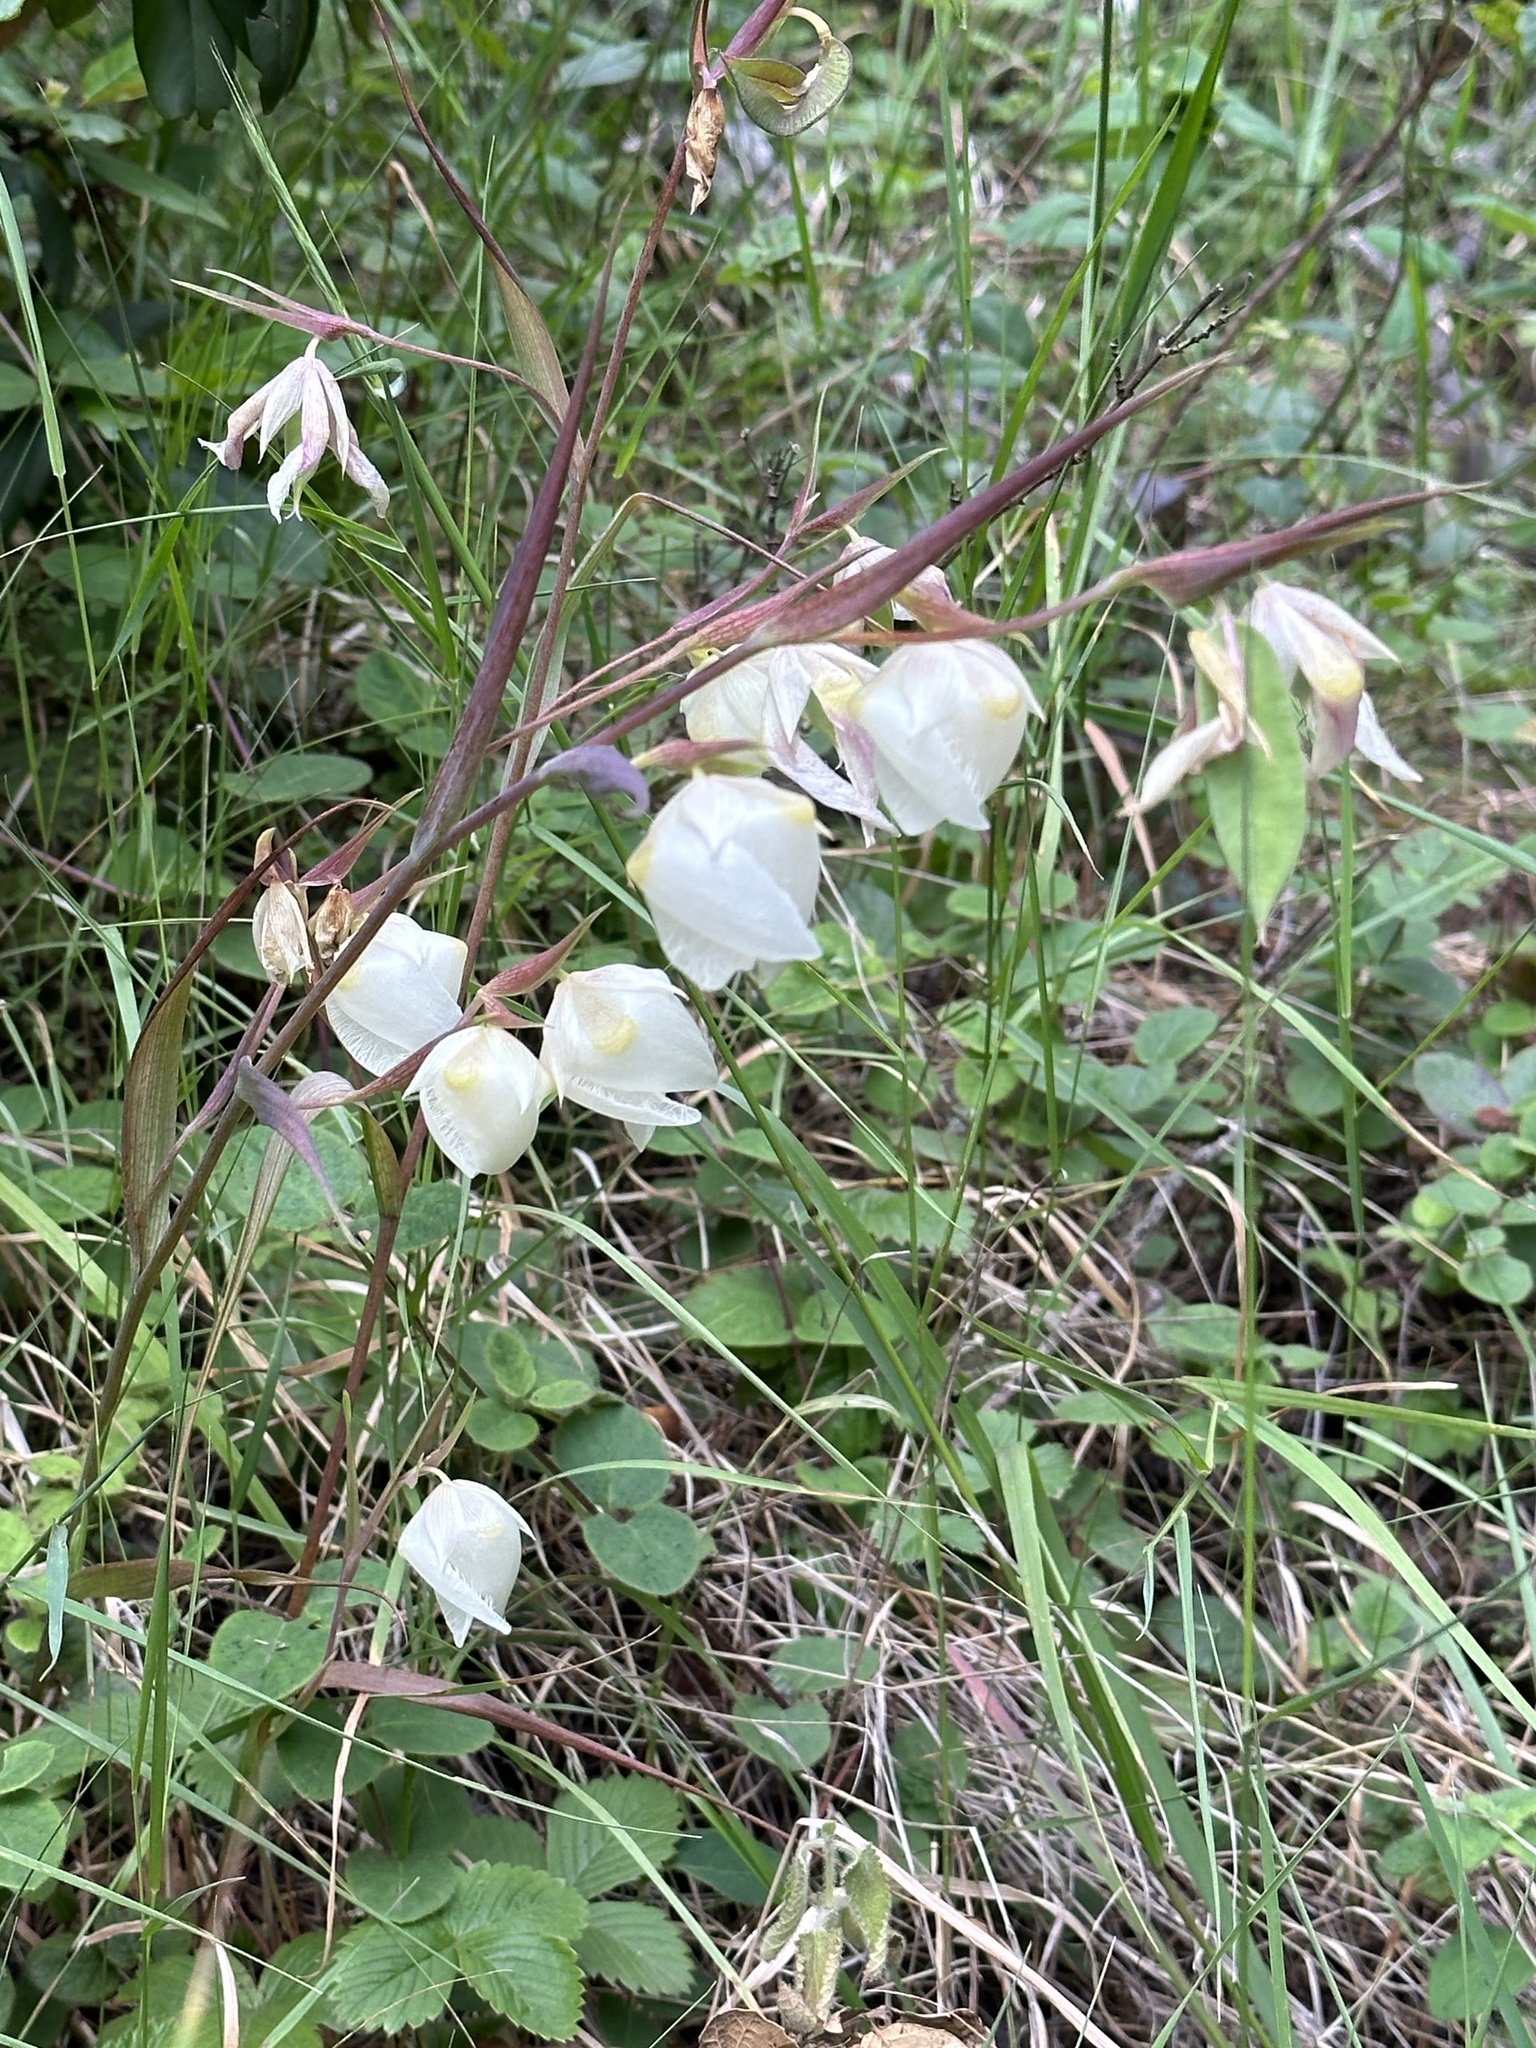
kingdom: Plantae
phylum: Tracheophyta
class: Liliopsida
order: Liliales
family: Liliaceae
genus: Calochortus
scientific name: Calochortus albus
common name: Fairy-lantern
